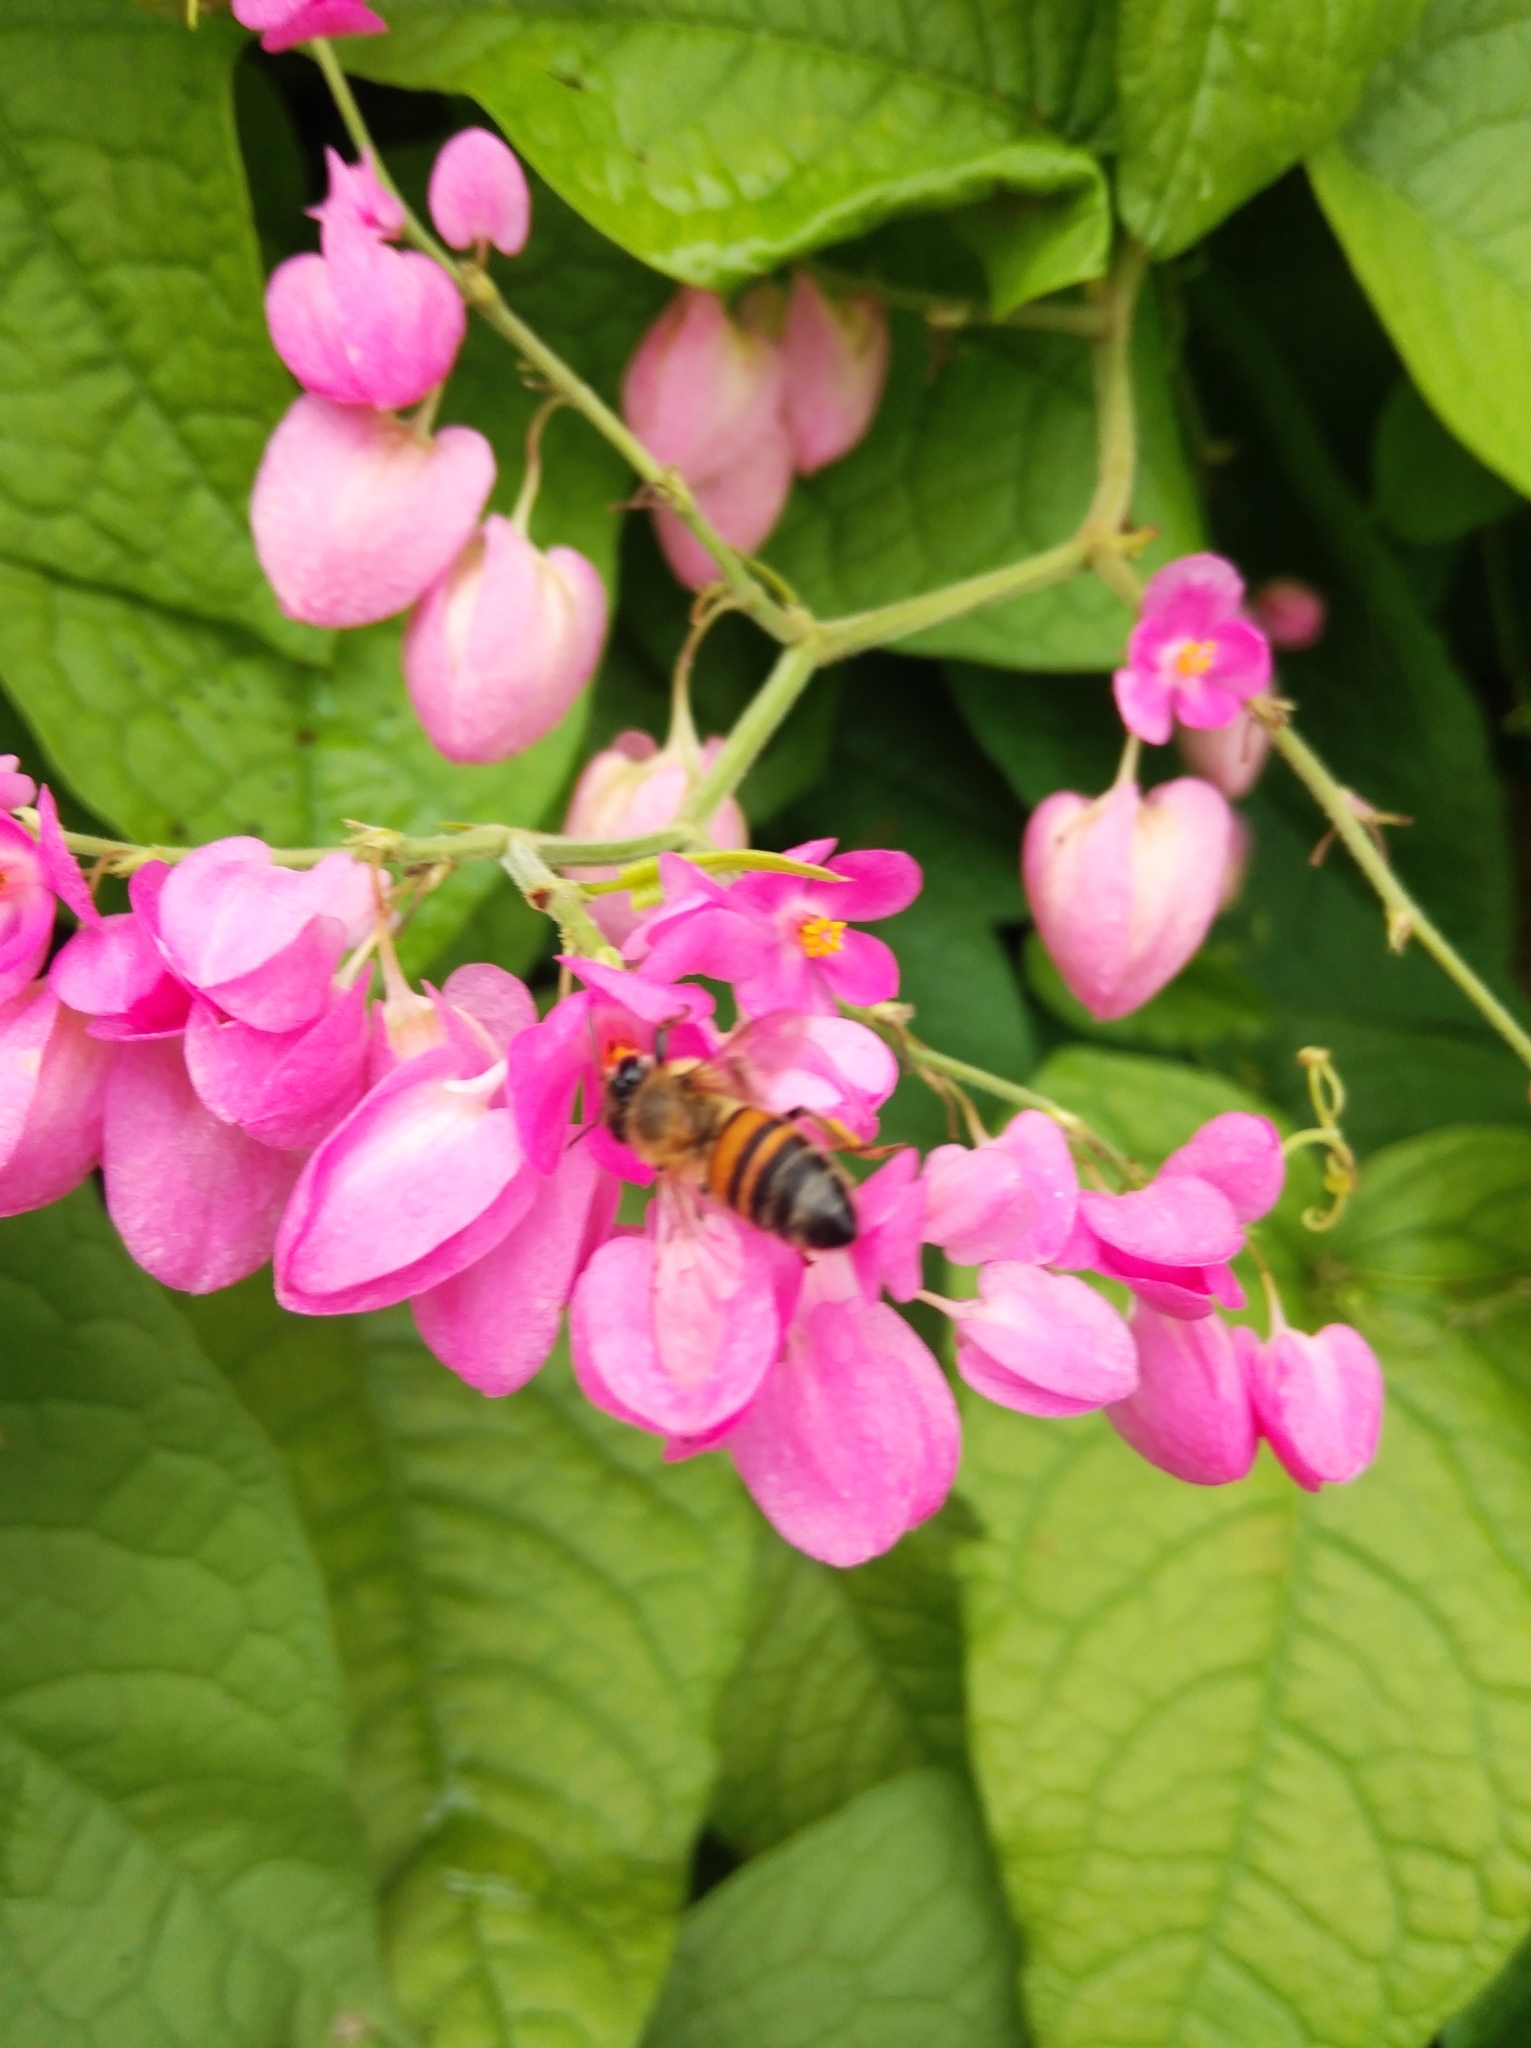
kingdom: Plantae
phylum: Tracheophyta
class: Magnoliopsida
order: Caryophyllales
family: Polygonaceae
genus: Antigonon
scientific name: Antigonon leptopus
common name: Coral vine
